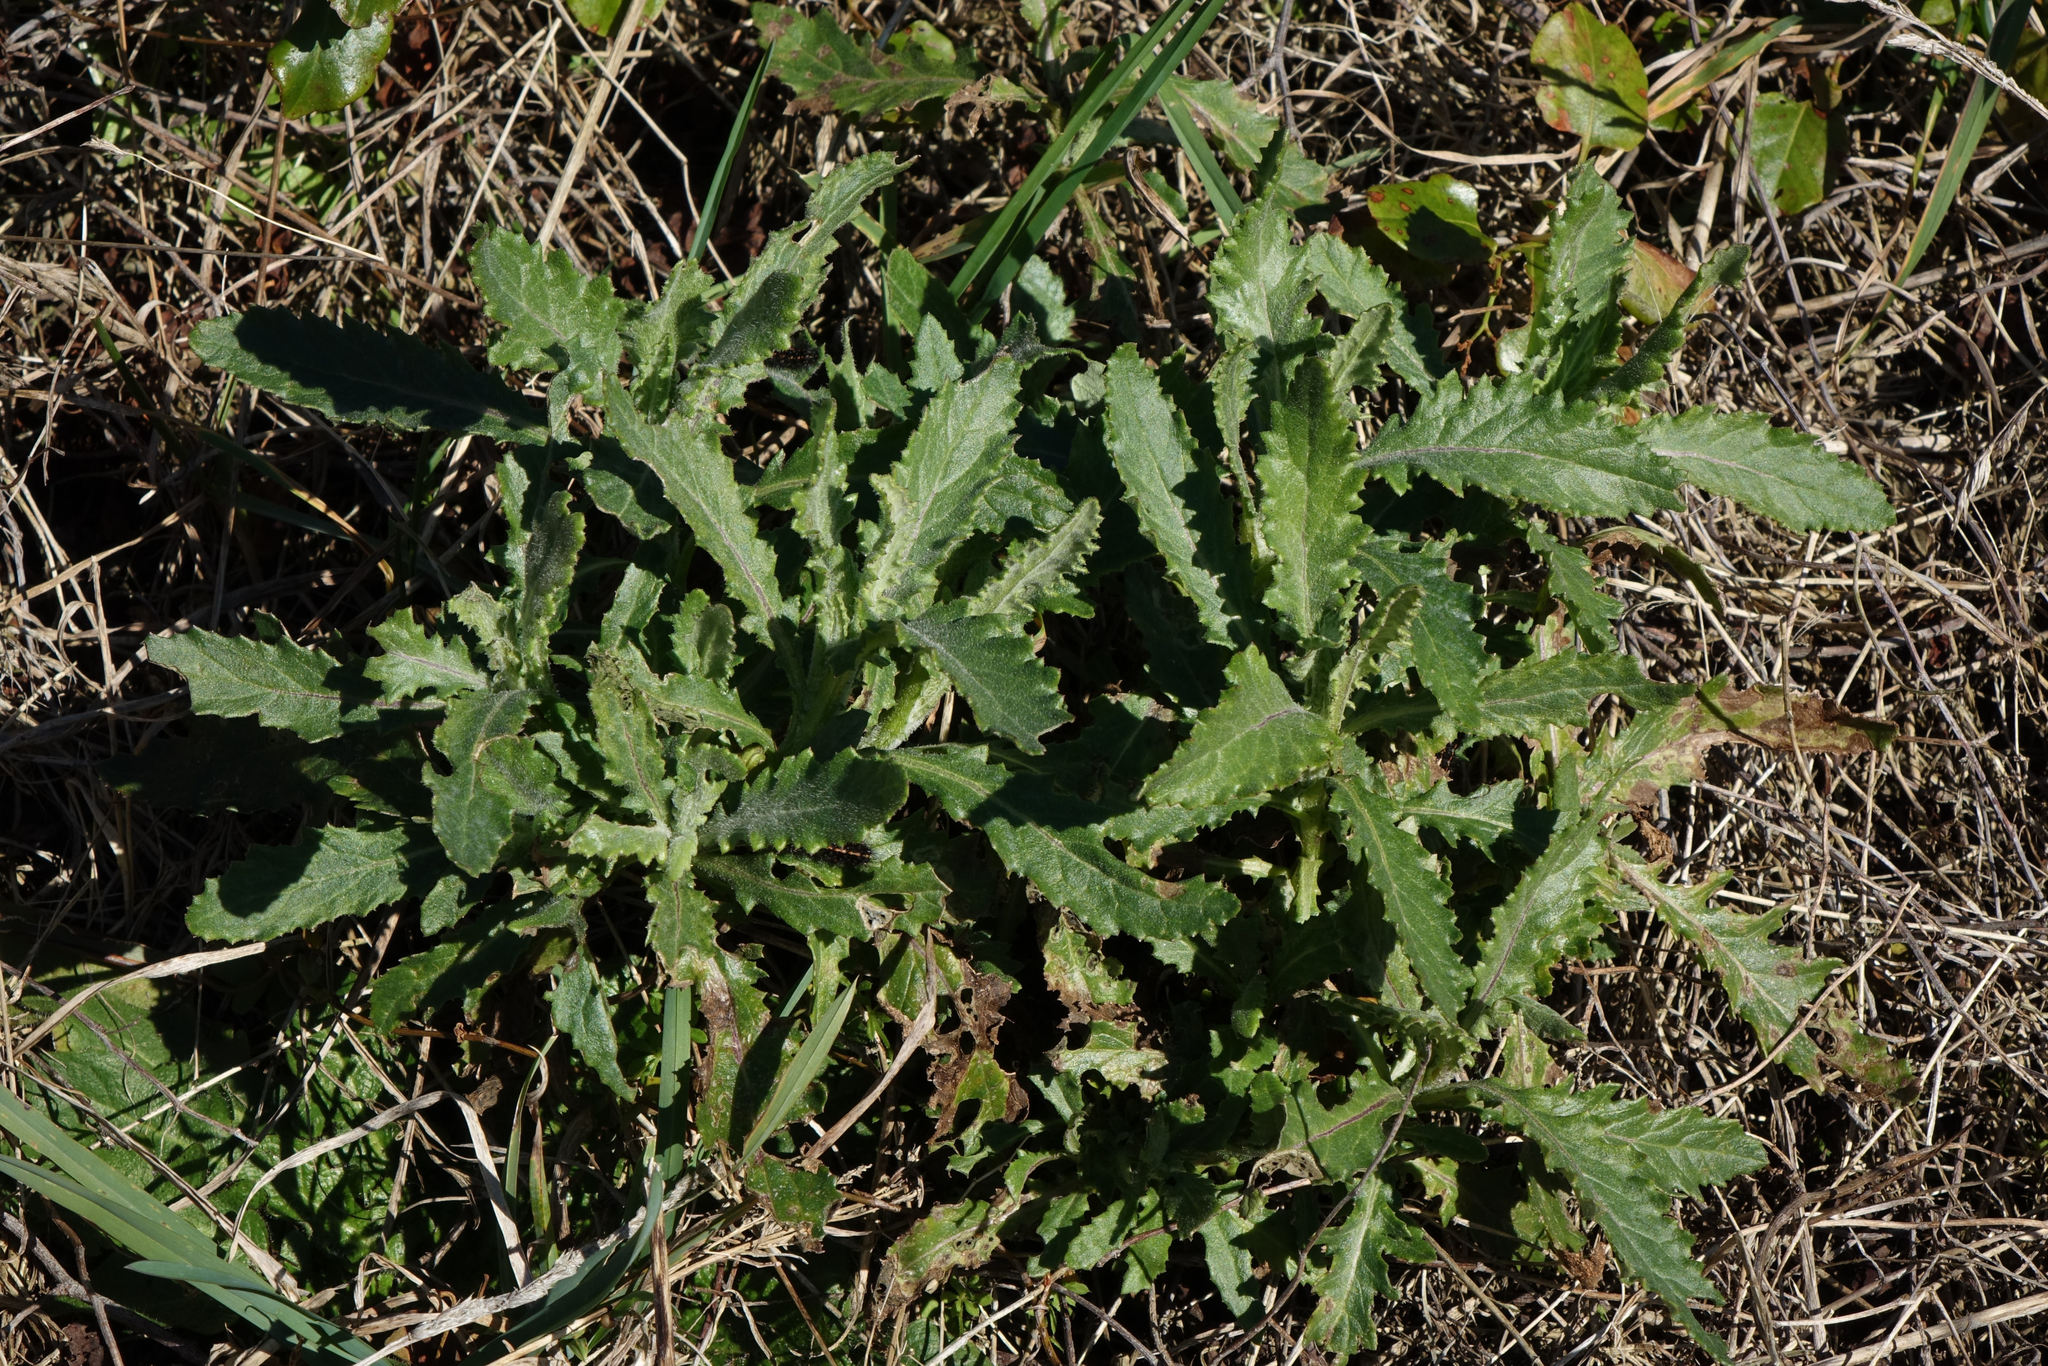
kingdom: Plantae
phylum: Tracheophyta
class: Magnoliopsida
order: Asterales
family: Asteraceae
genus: Senecio
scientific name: Senecio glomeratus
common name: Cutleaf burnweed
